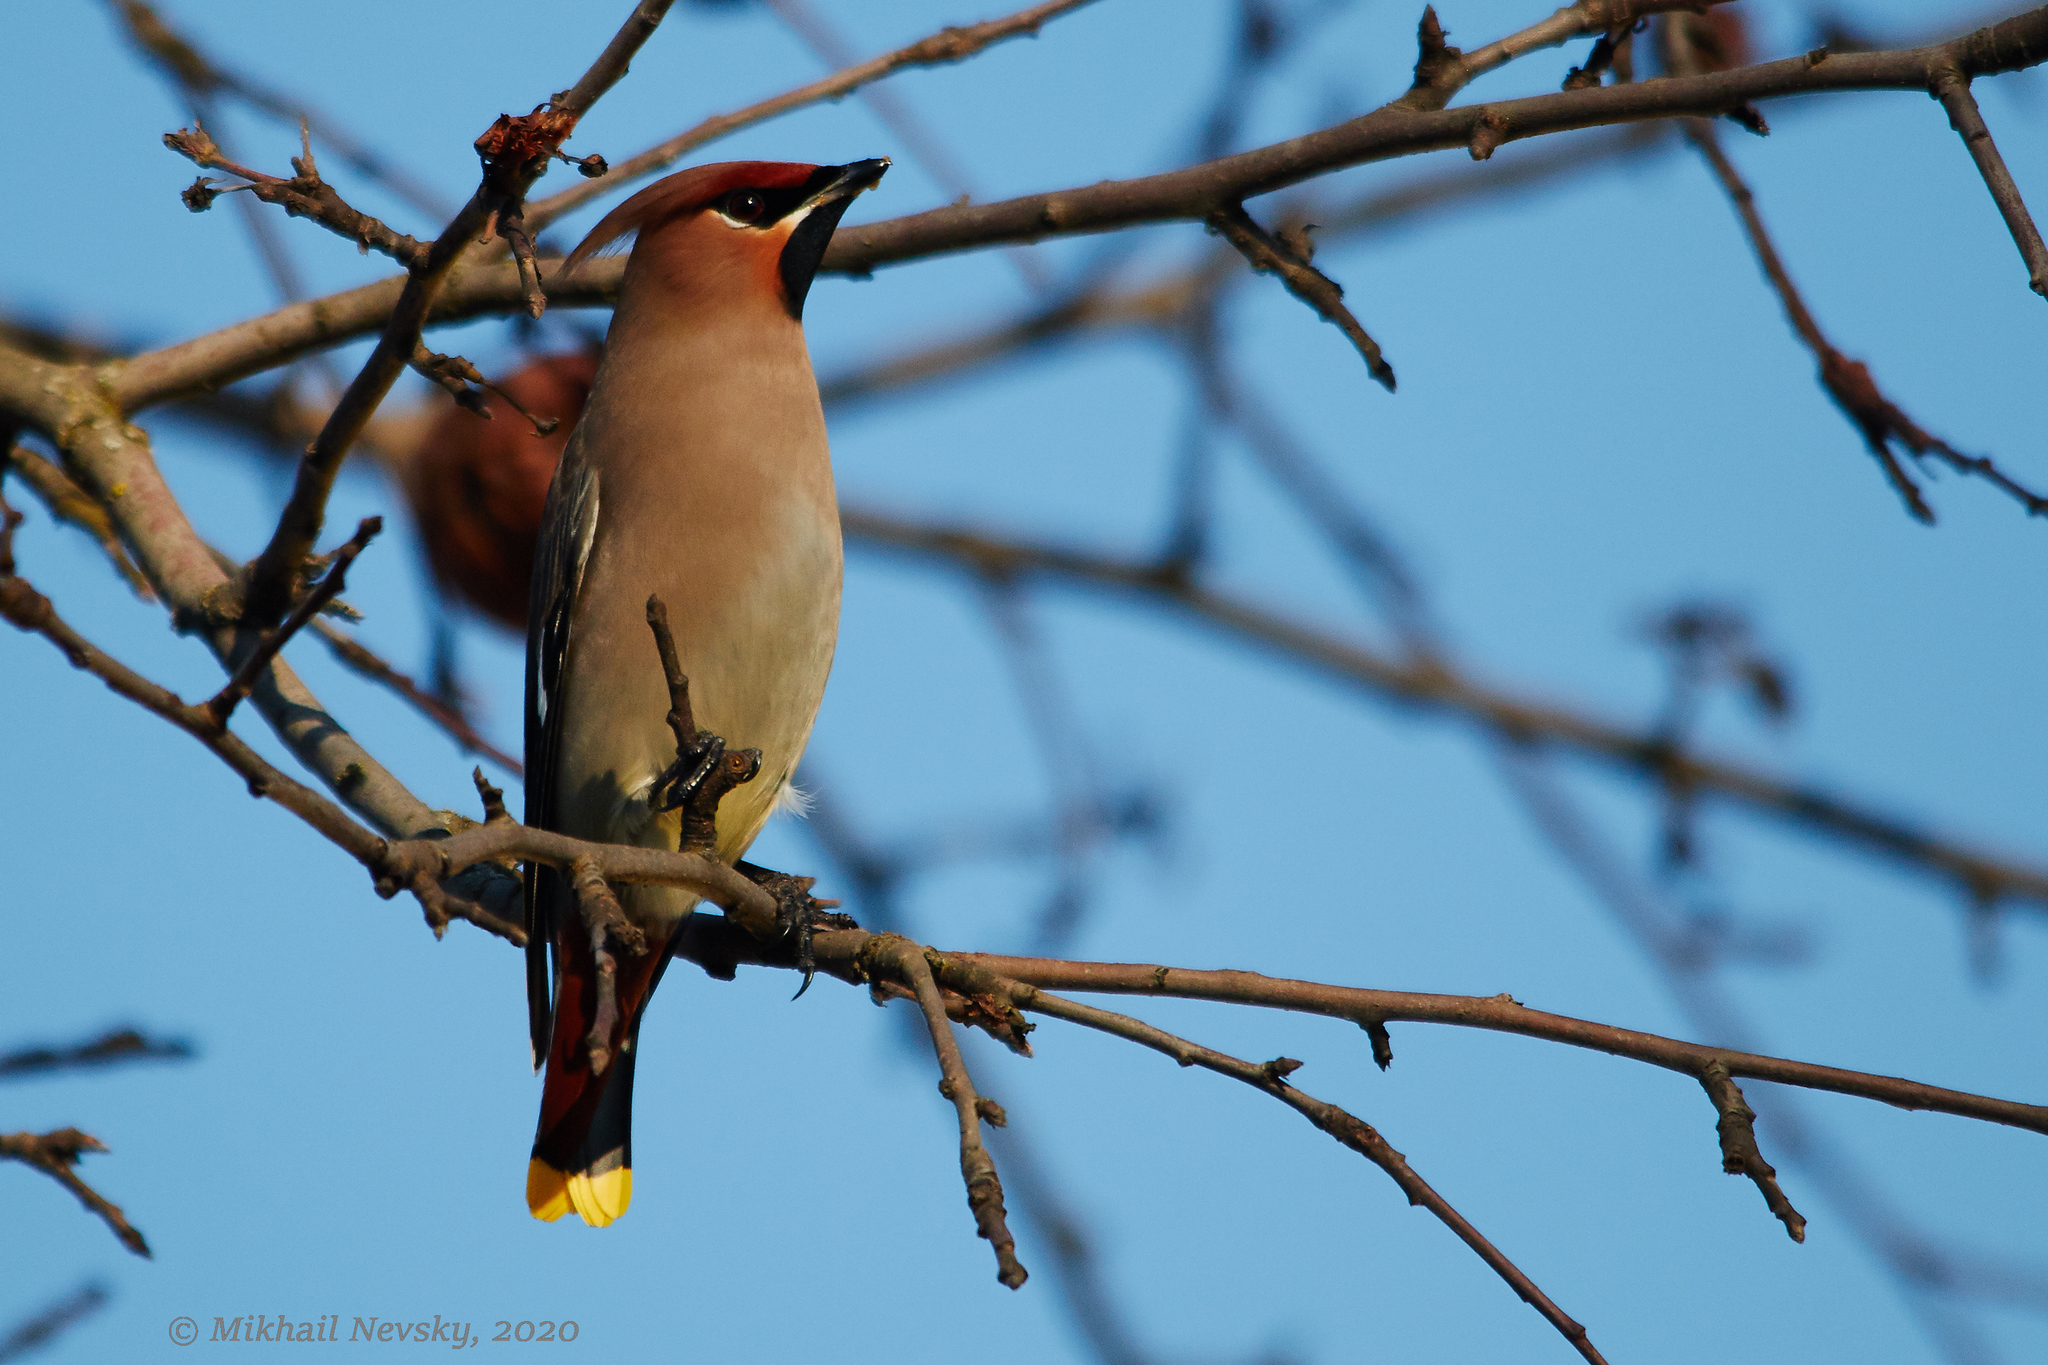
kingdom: Animalia
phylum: Chordata
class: Aves
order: Passeriformes
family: Bombycillidae
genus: Bombycilla
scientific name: Bombycilla garrulus
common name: Bohemian waxwing
